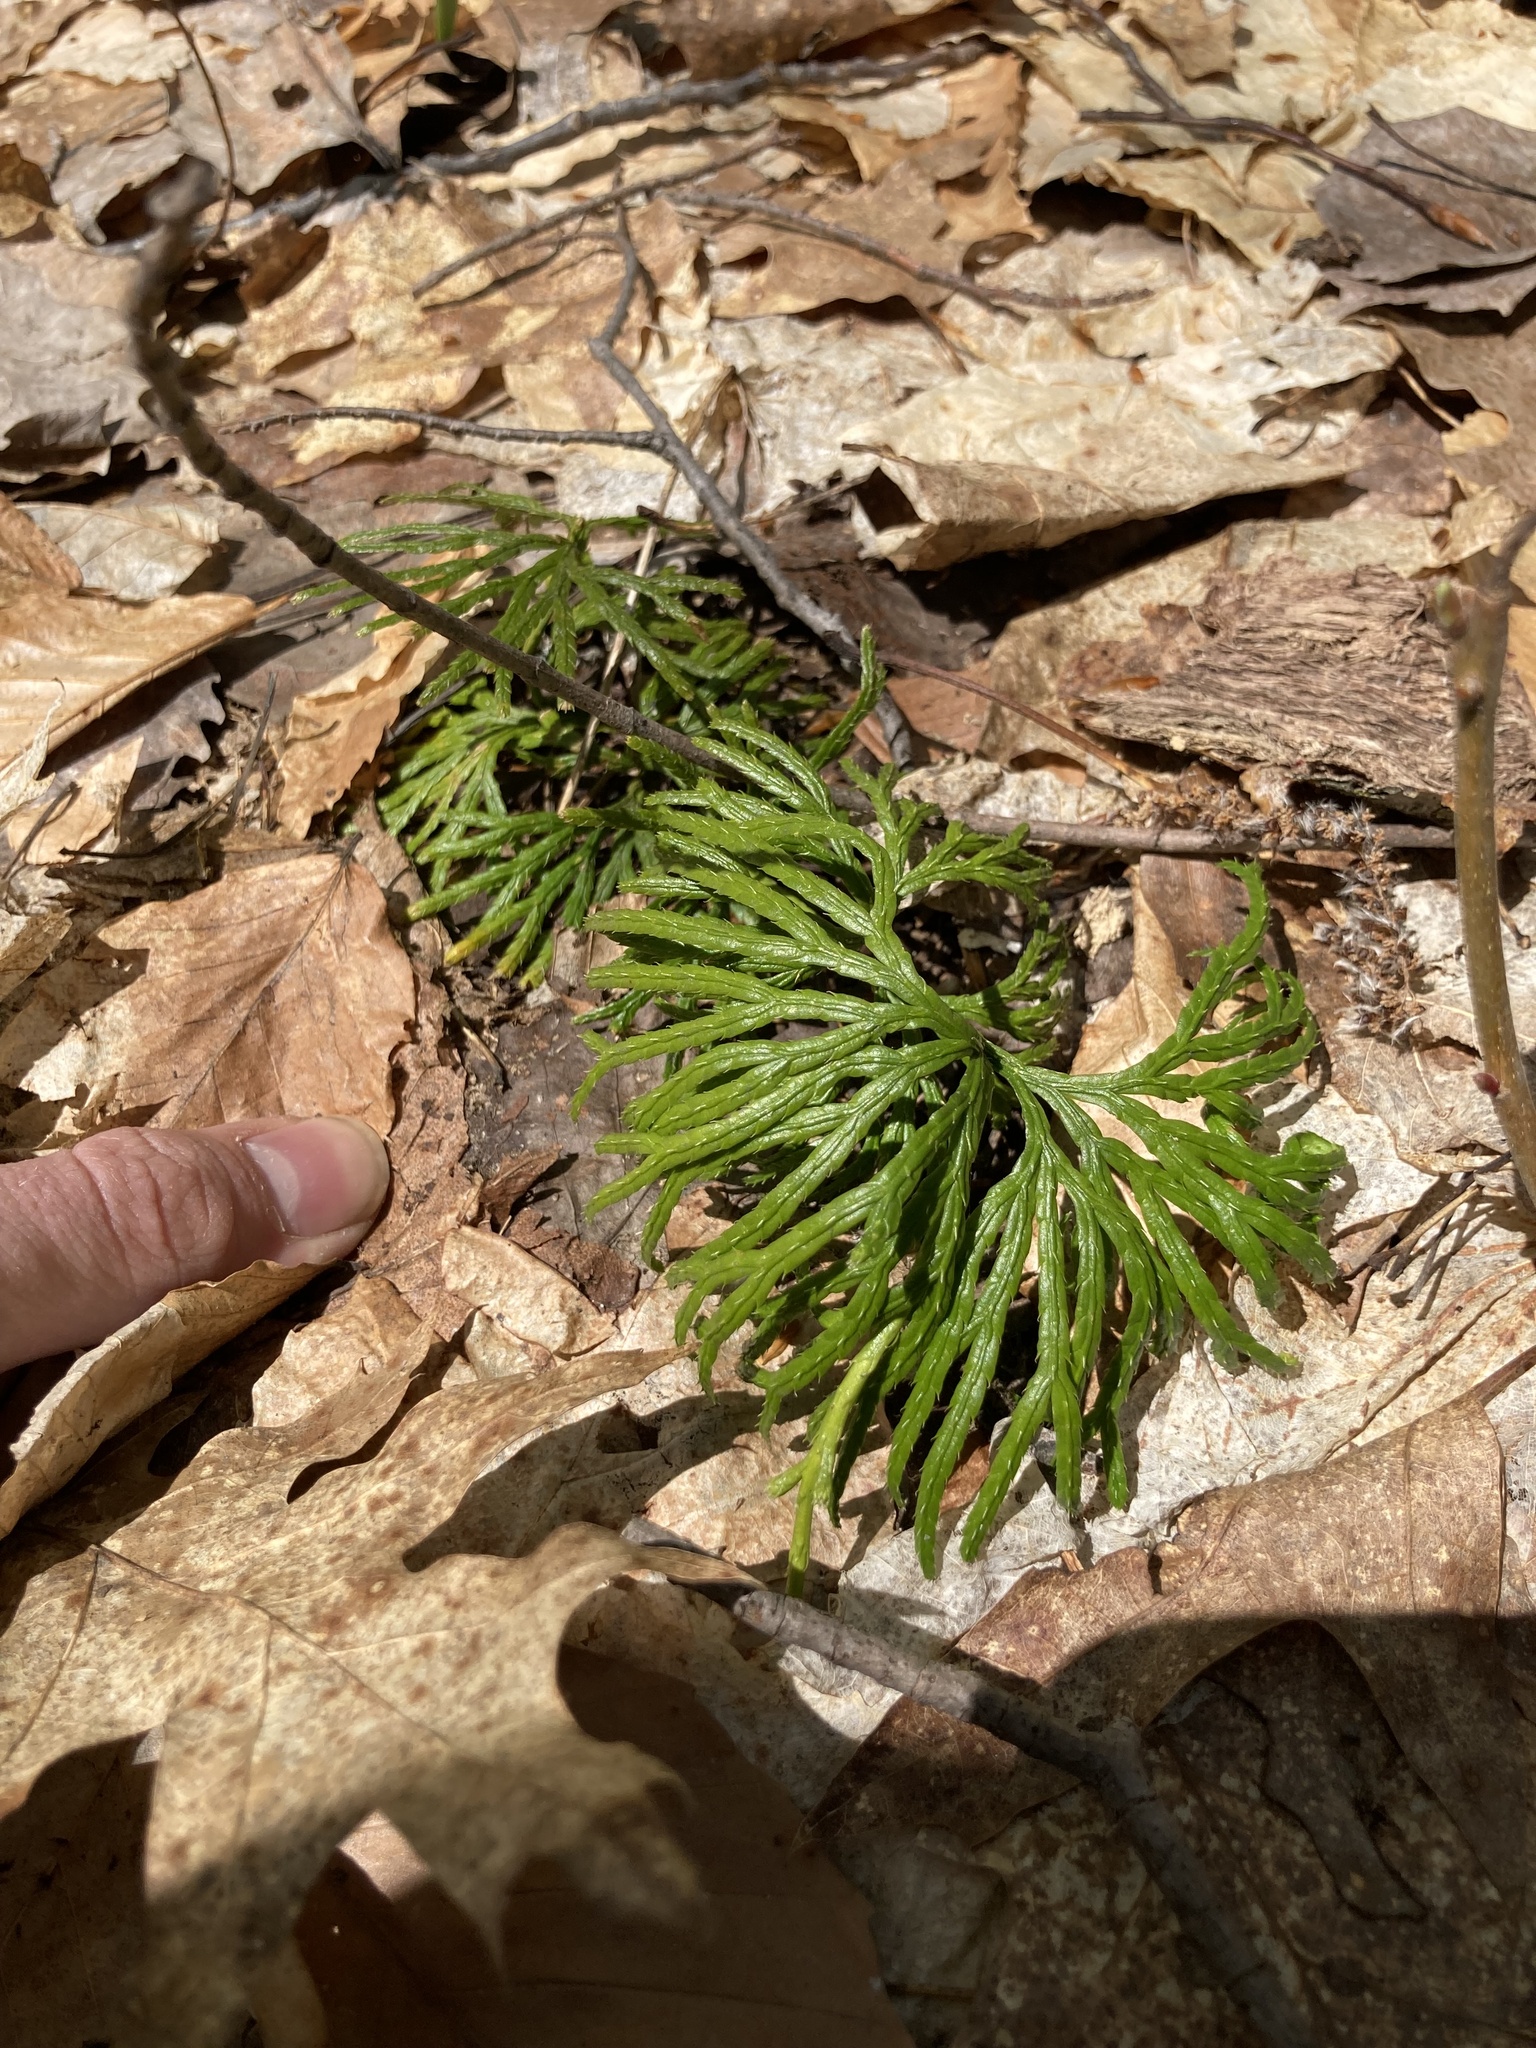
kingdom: Plantae
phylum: Tracheophyta
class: Lycopodiopsida
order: Lycopodiales
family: Lycopodiaceae
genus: Diphasiastrum
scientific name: Diphasiastrum digitatum
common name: Southern running-pine
